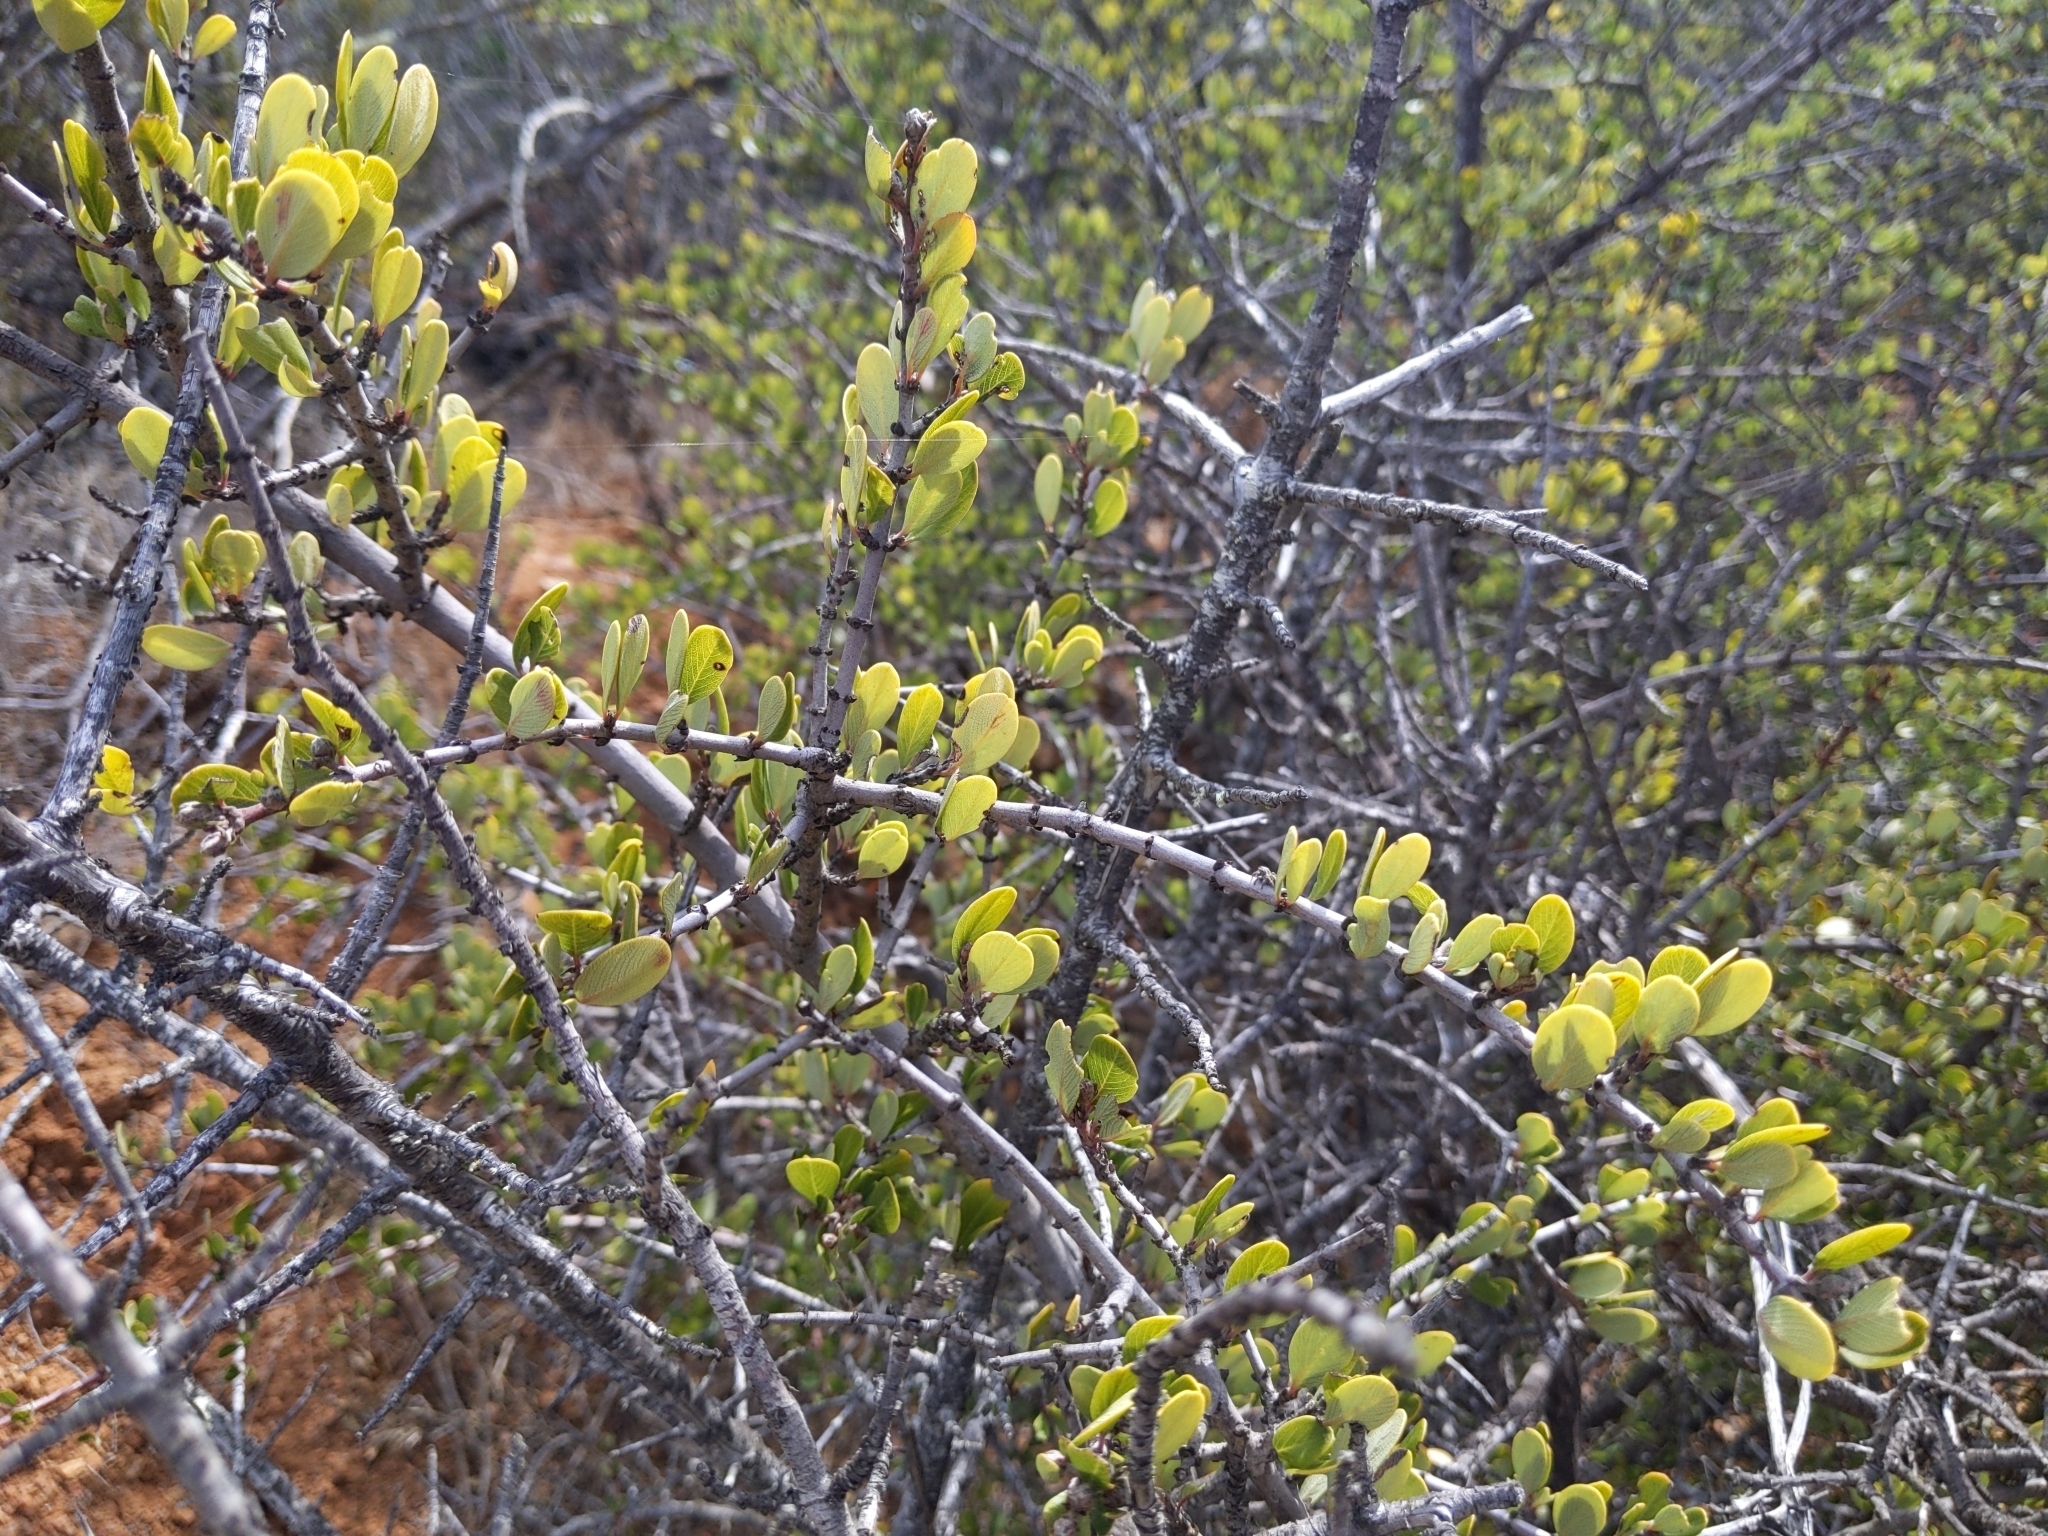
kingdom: Plantae
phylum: Tracheophyta
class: Magnoliopsida
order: Rosales
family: Rhamnaceae
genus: Ceanothus
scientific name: Ceanothus cuneatus
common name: Cuneate ceanothus
